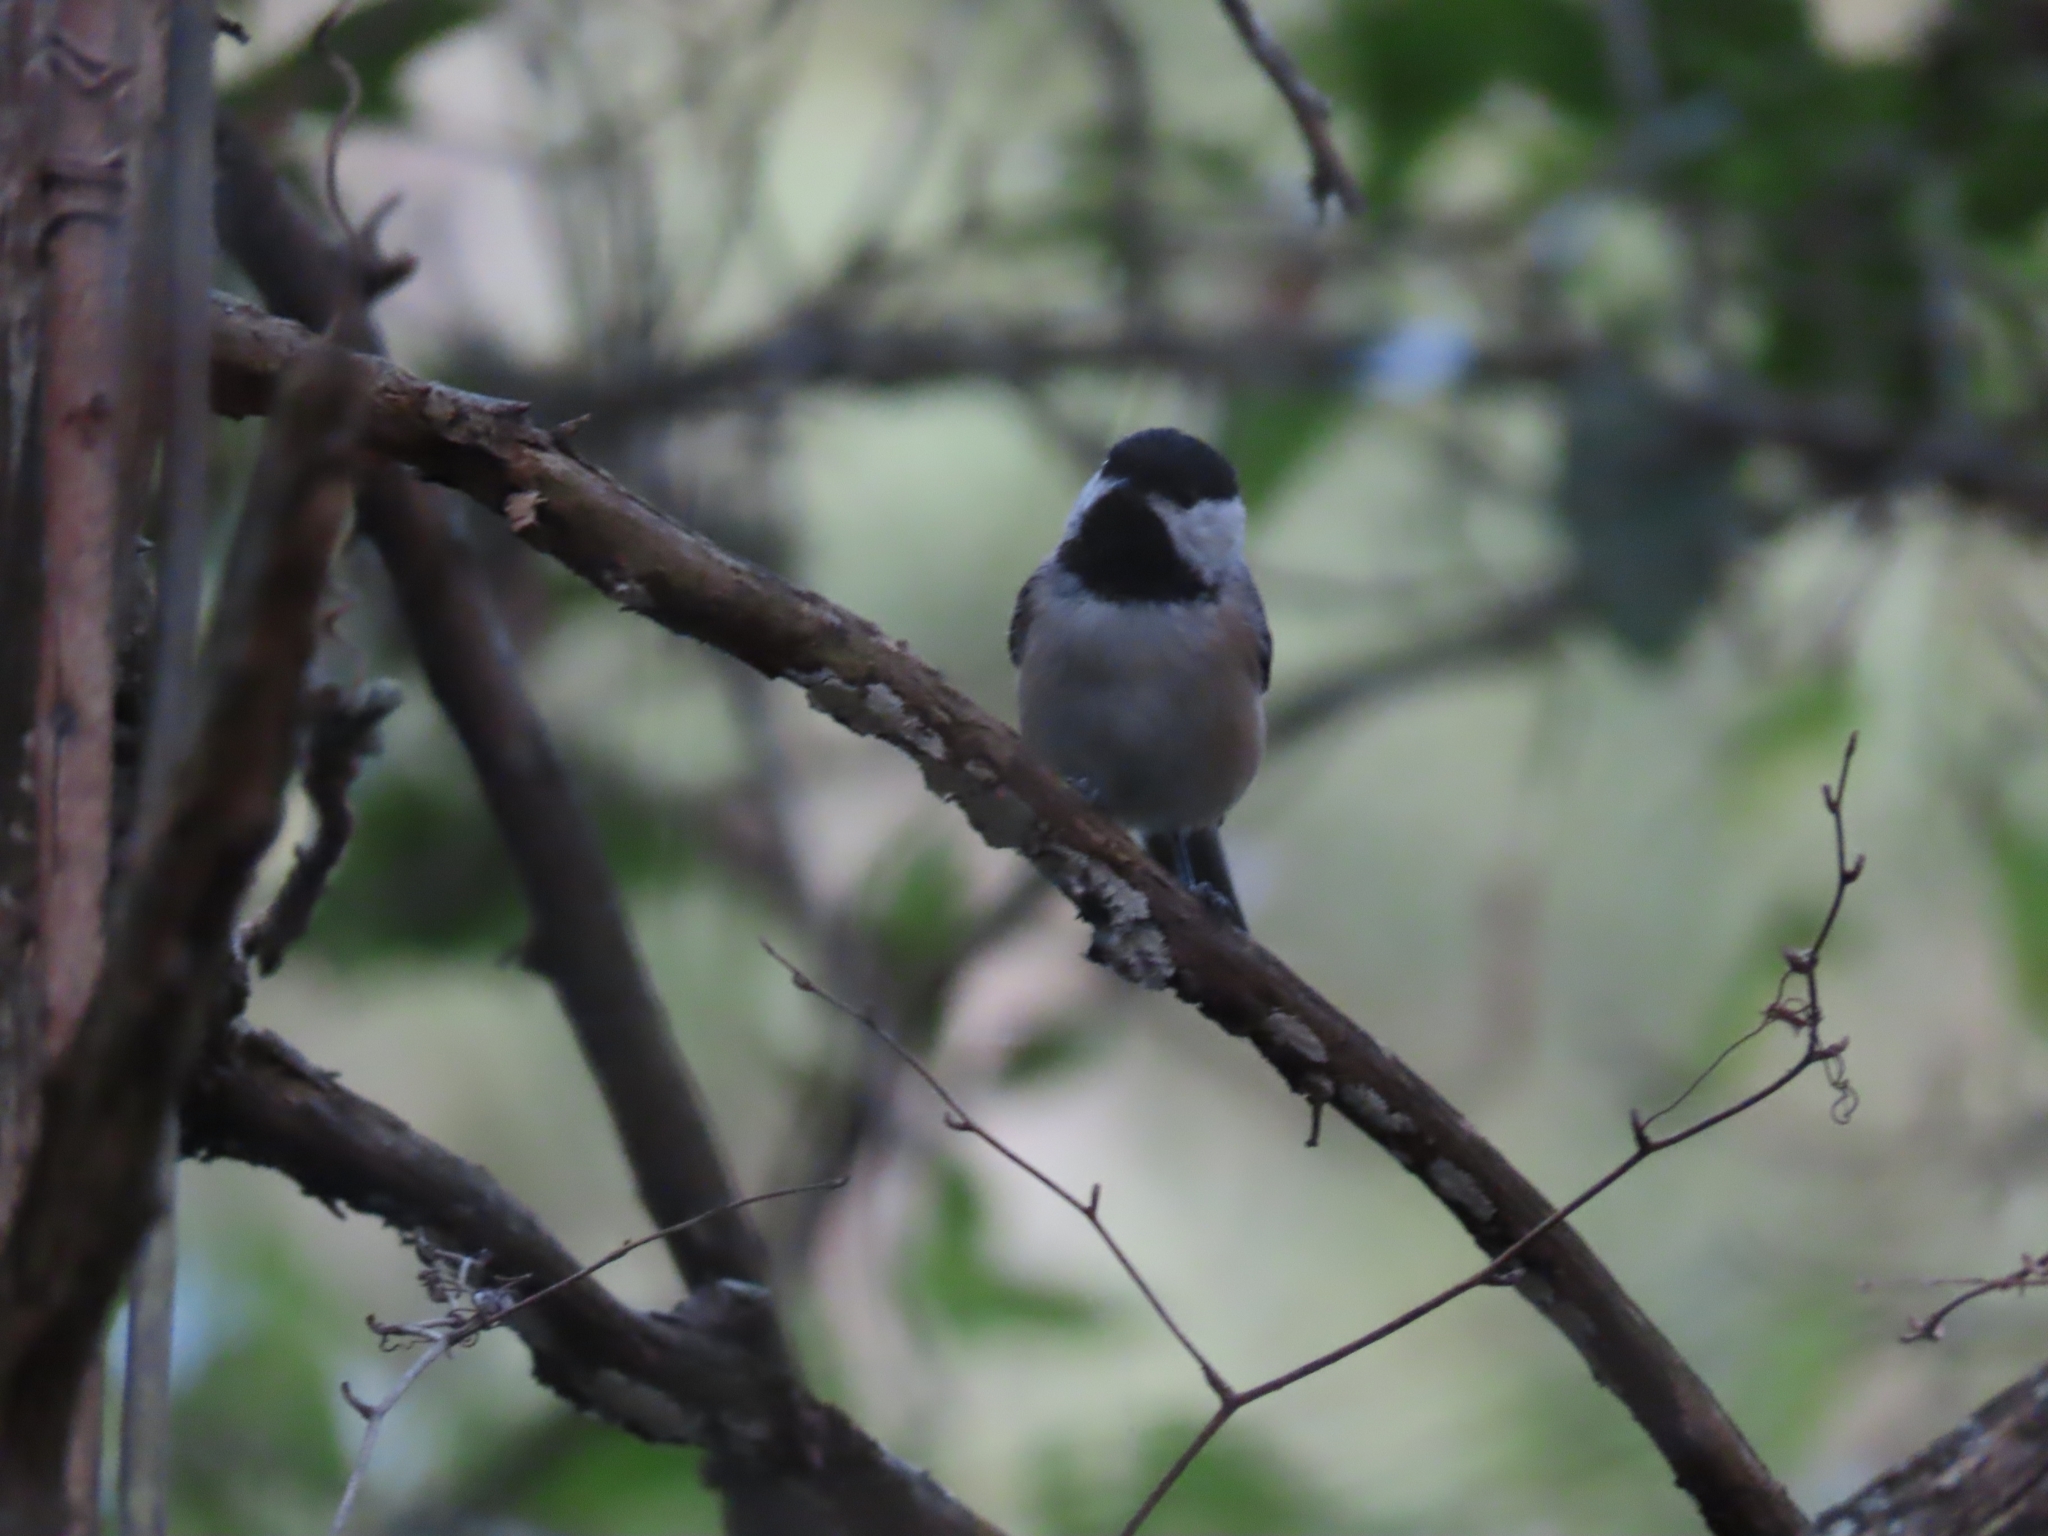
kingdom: Animalia
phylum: Chordata
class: Aves
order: Passeriformes
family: Paridae
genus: Poecile
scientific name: Poecile carolinensis
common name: Carolina chickadee
